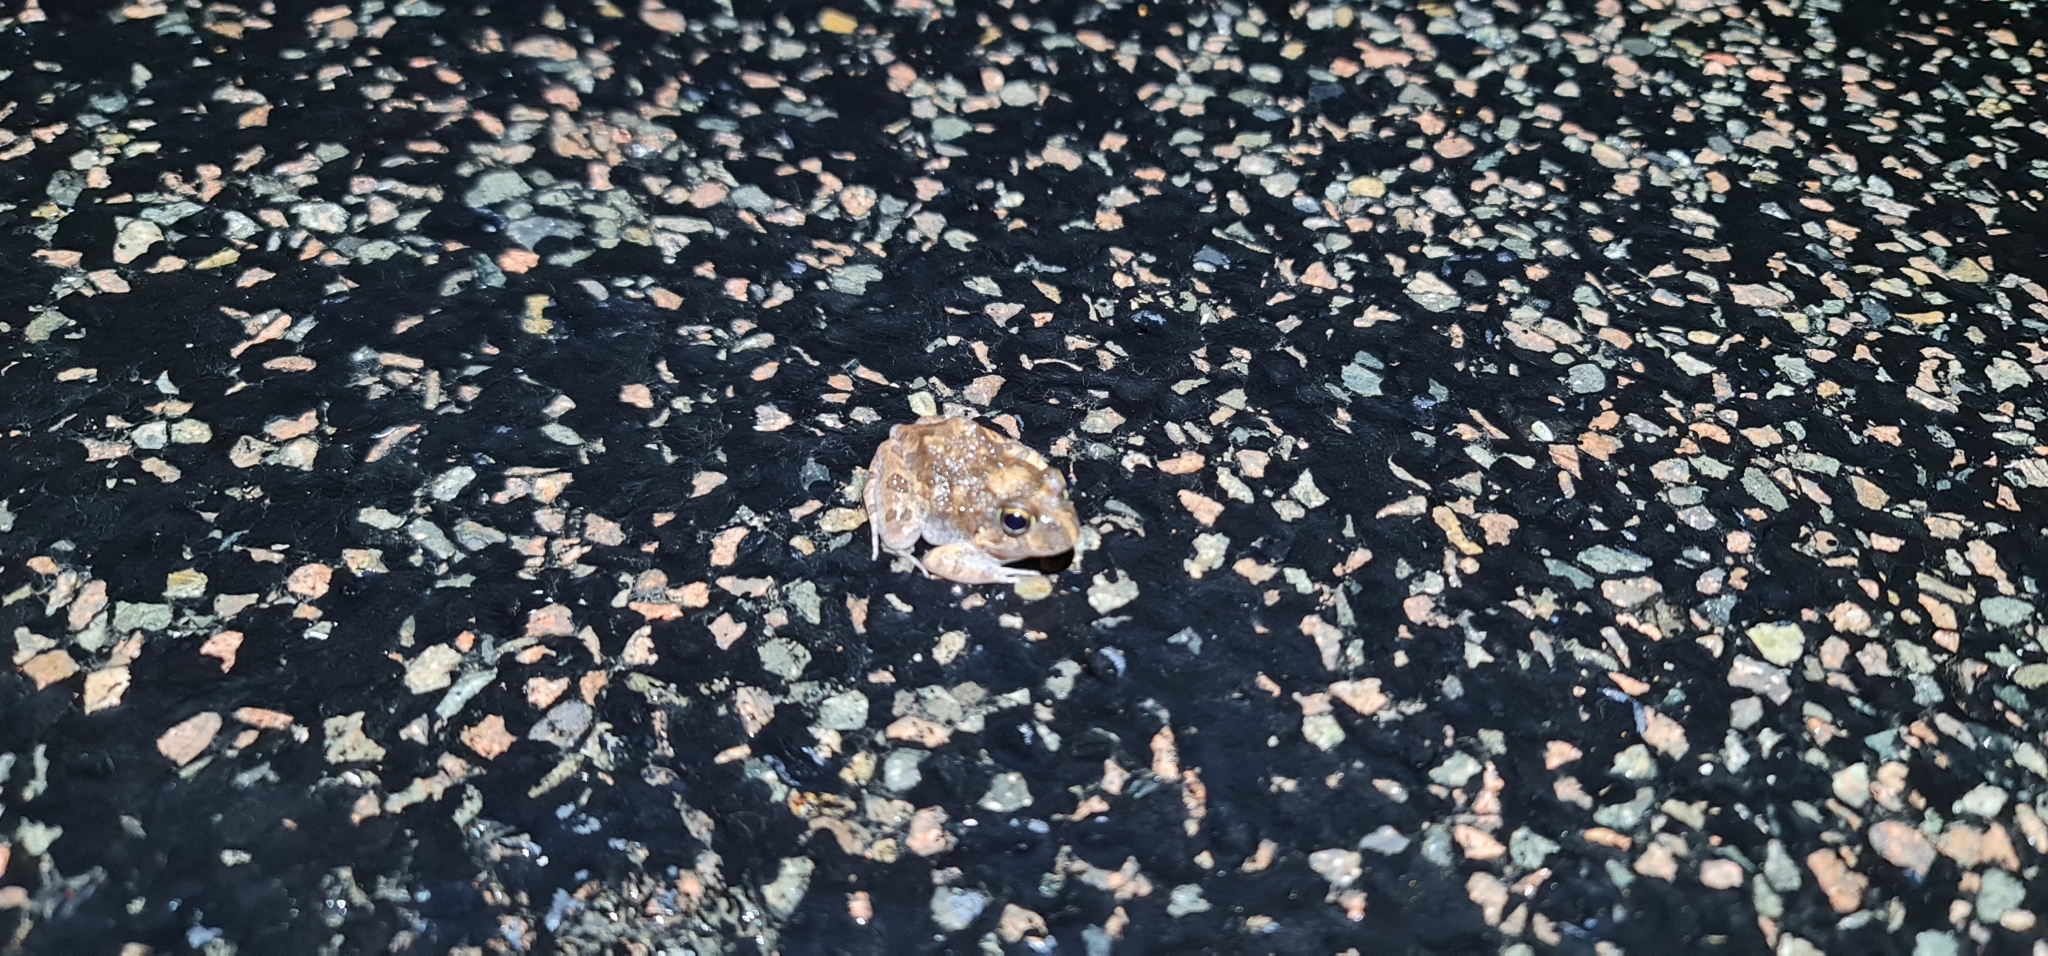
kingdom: Animalia
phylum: Chordata
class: Amphibia
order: Anura
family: Limnodynastidae
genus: Platyplectrum
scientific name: Platyplectrum ornatum
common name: Ornate burrowing frog
